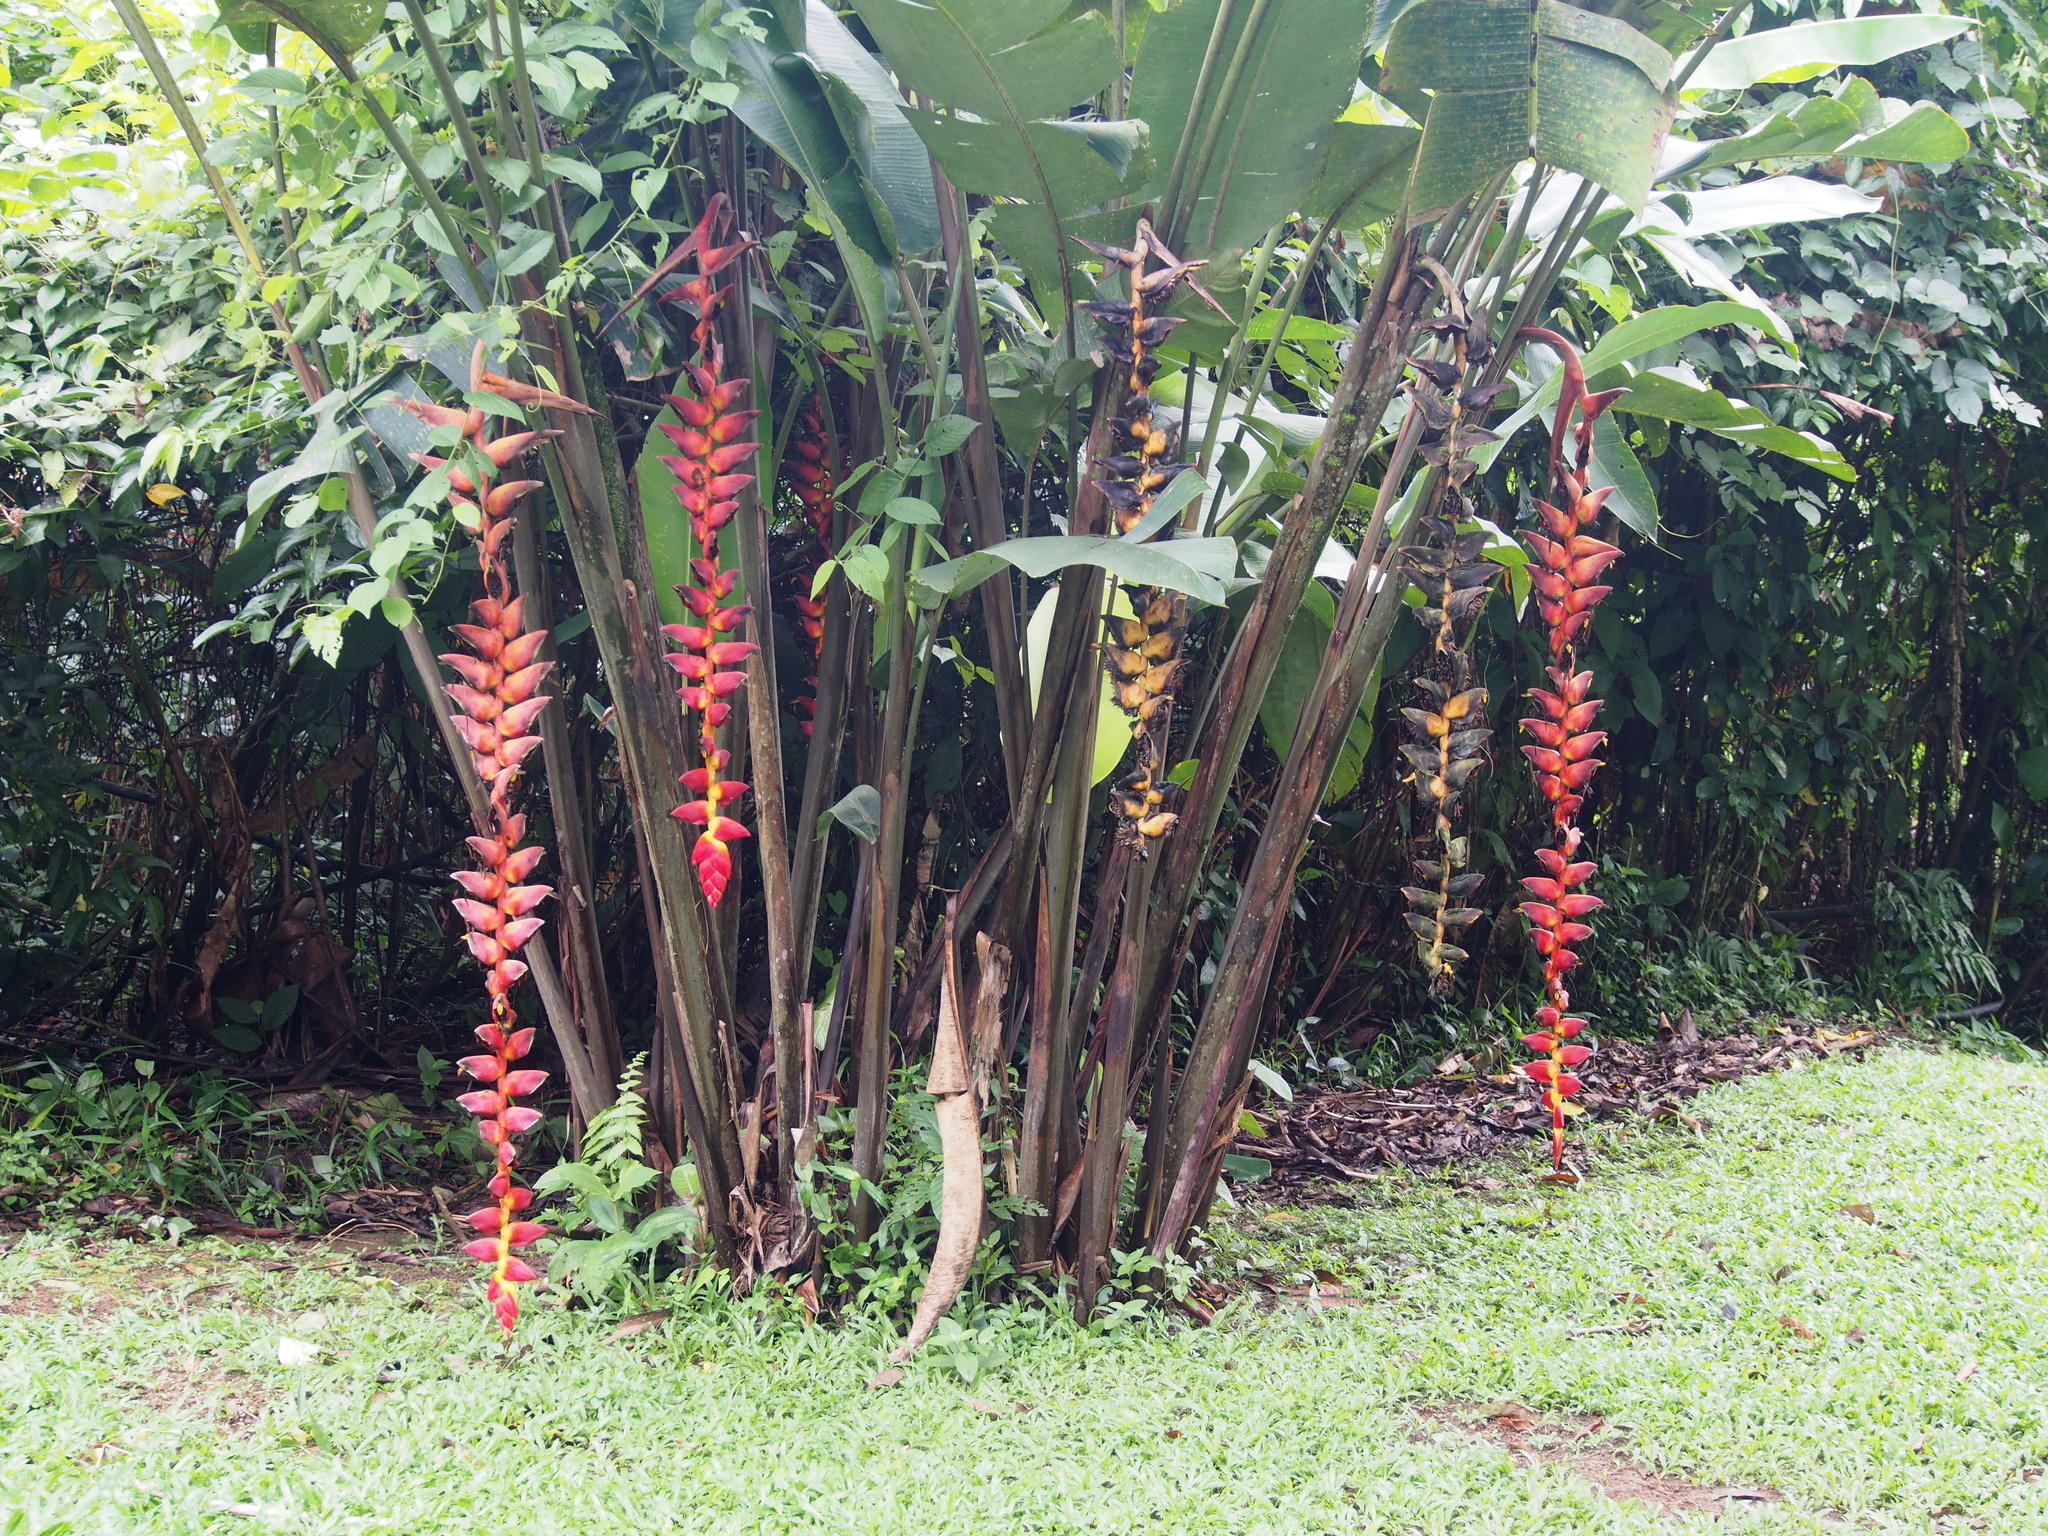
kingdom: Plantae
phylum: Tracheophyta
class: Liliopsida
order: Zingiberales
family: Heliconiaceae
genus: Heliconia
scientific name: Heliconia pogonantha
